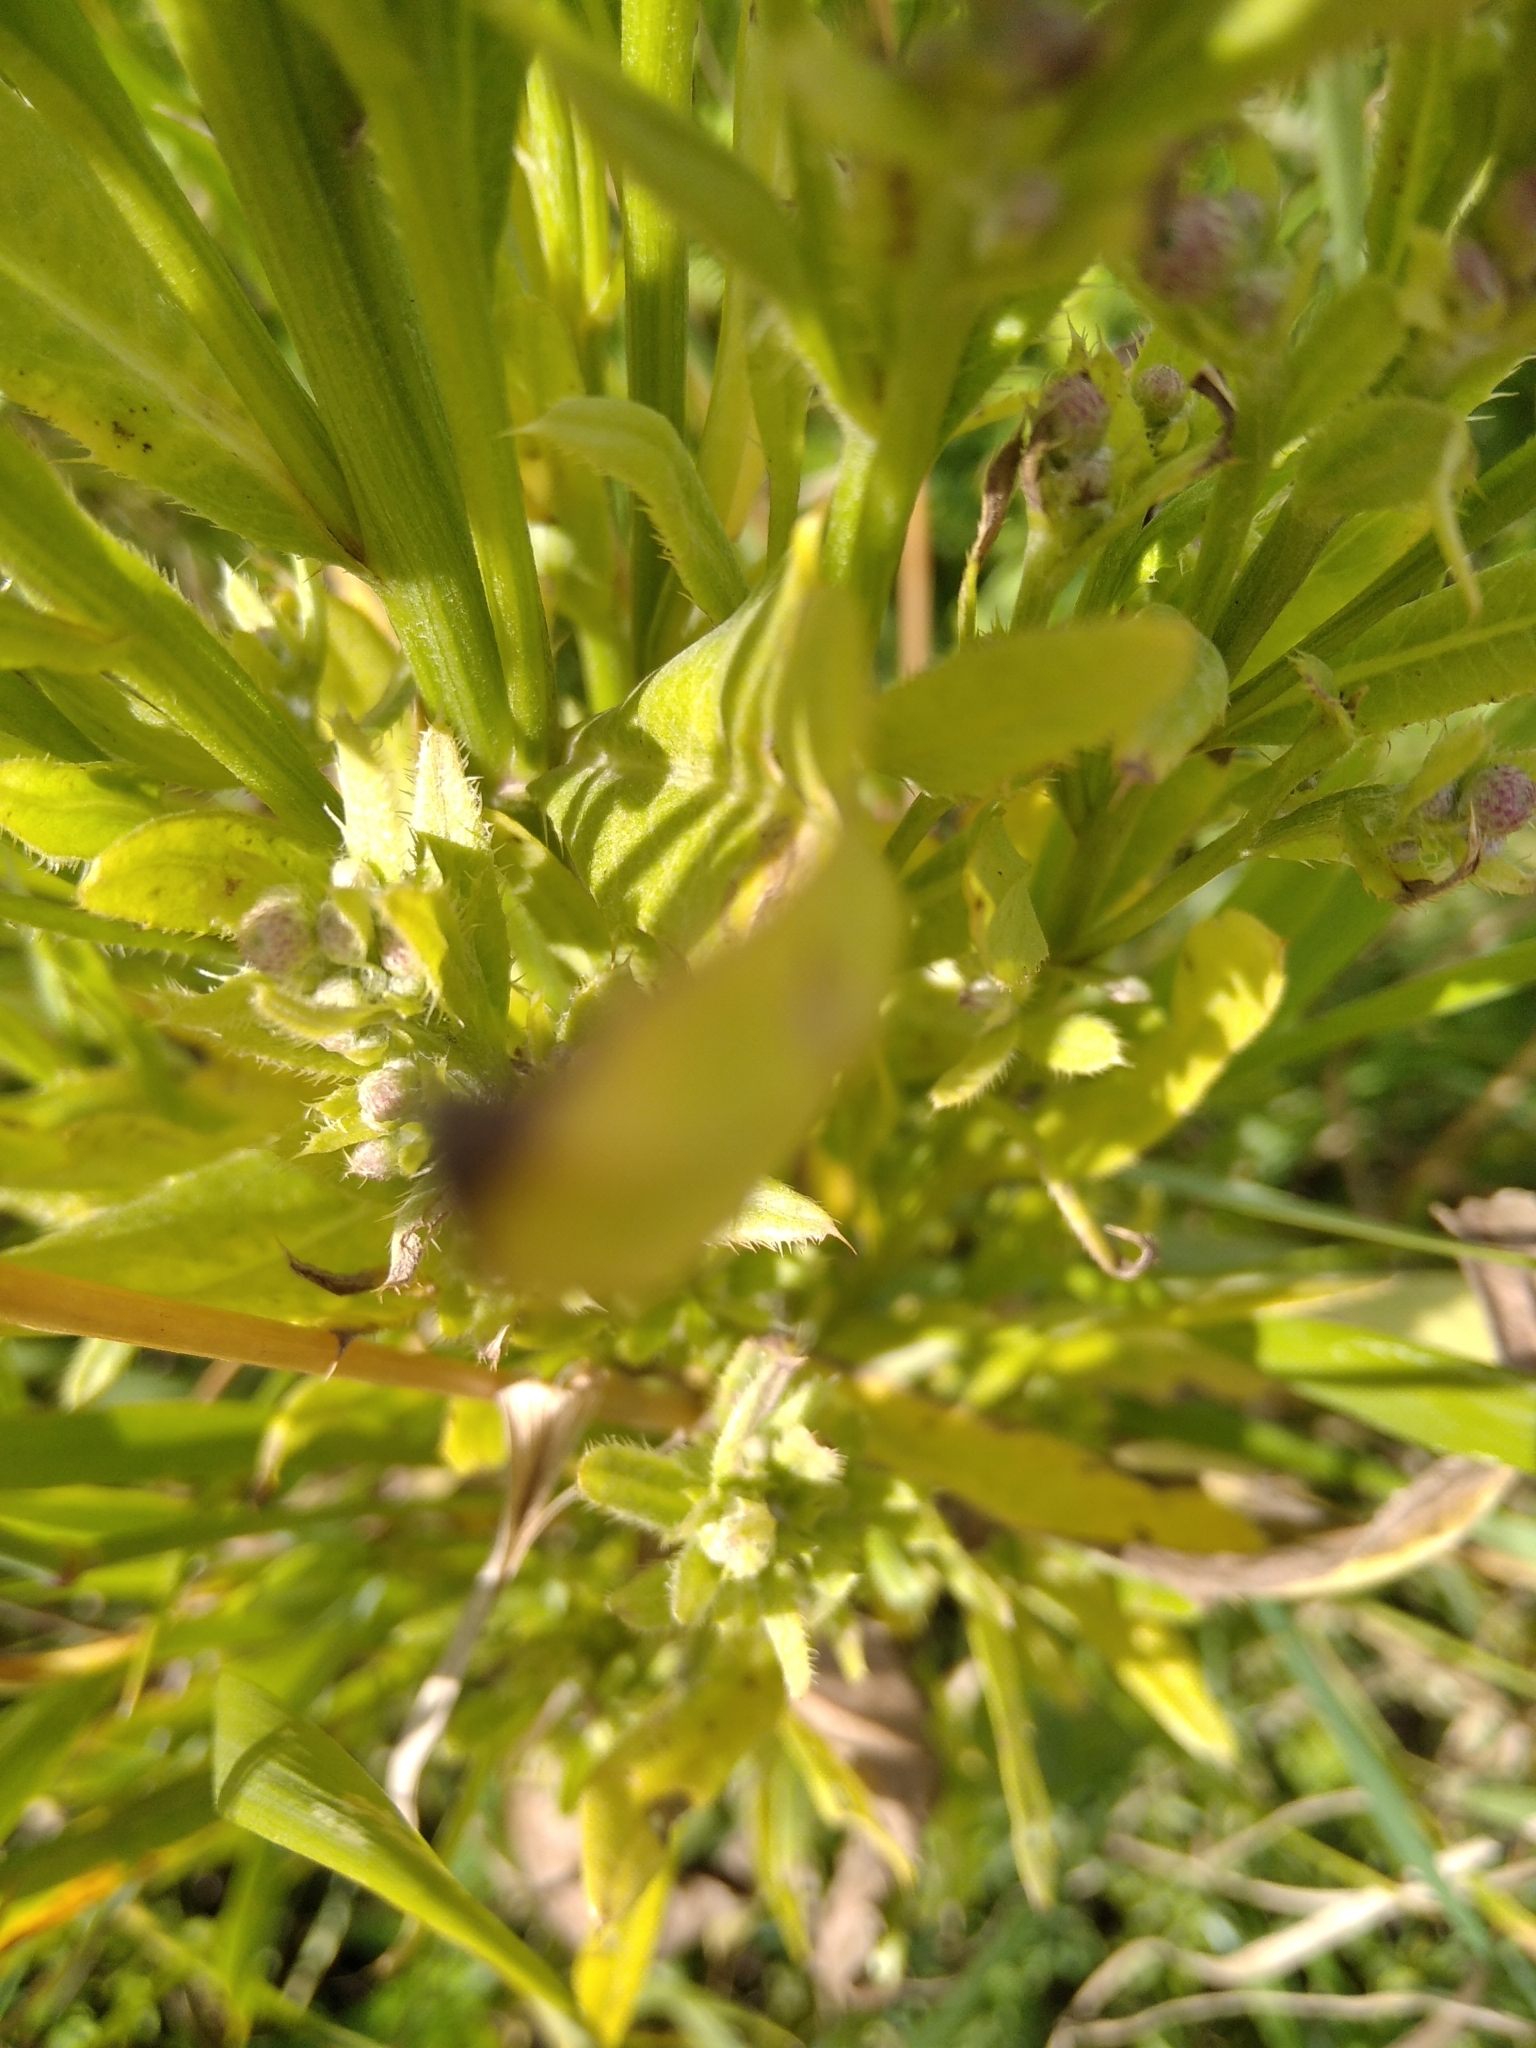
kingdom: Plantae
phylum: Tracheophyta
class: Magnoliopsida
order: Asterales
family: Asteraceae
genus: Cirsium
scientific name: Cirsium arvense
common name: Creeping thistle
